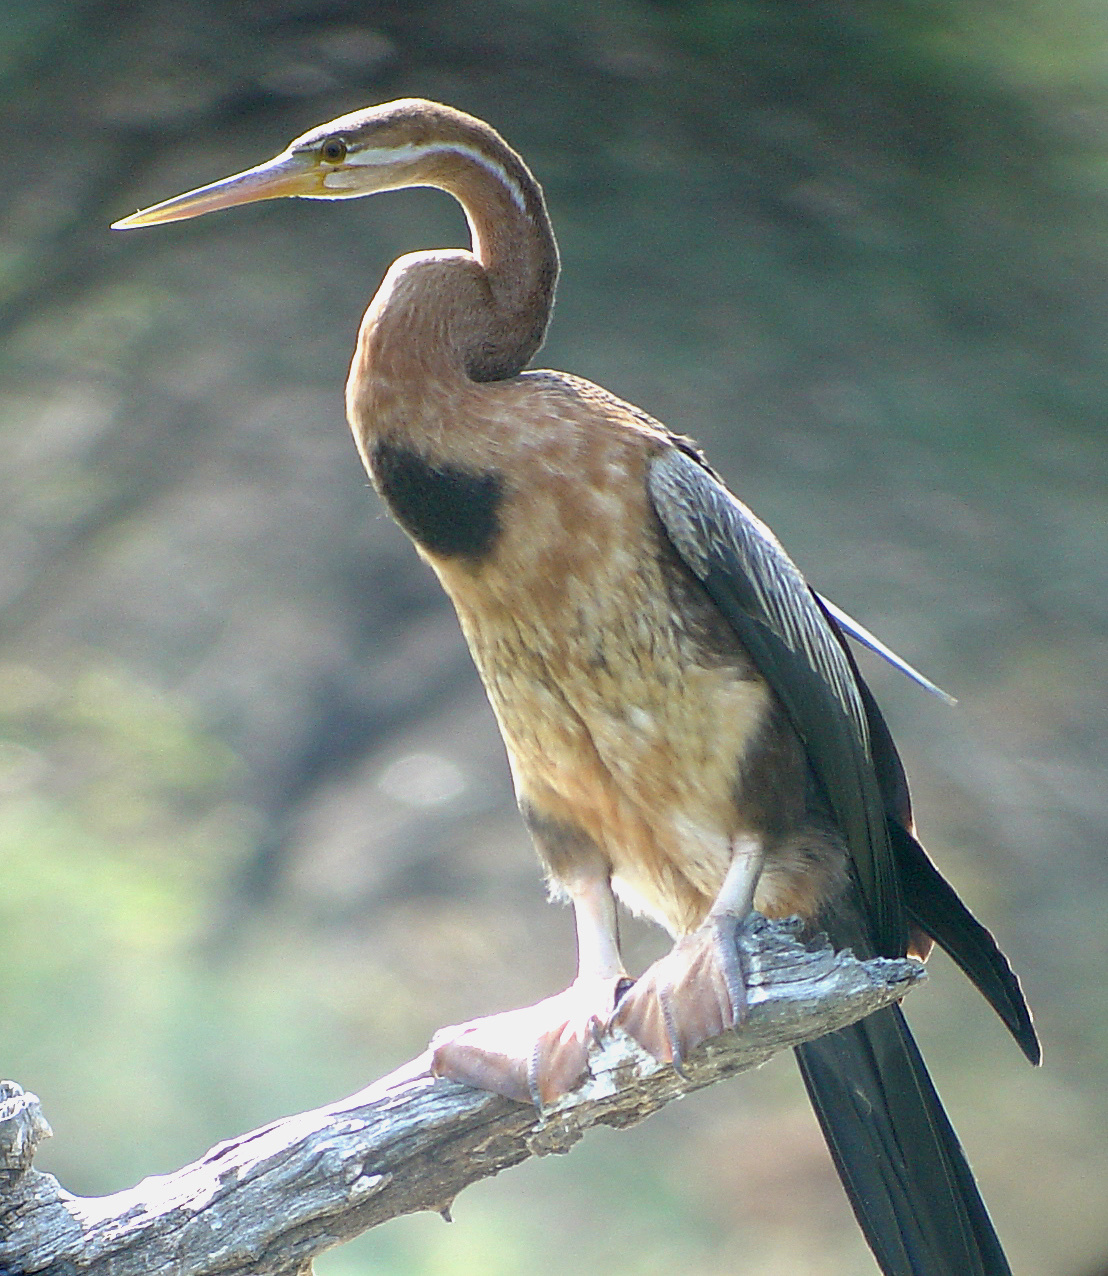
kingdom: Animalia
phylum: Chordata
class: Aves
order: Suliformes
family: Anhingidae
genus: Anhinga
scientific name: Anhinga rufa
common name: African darter
